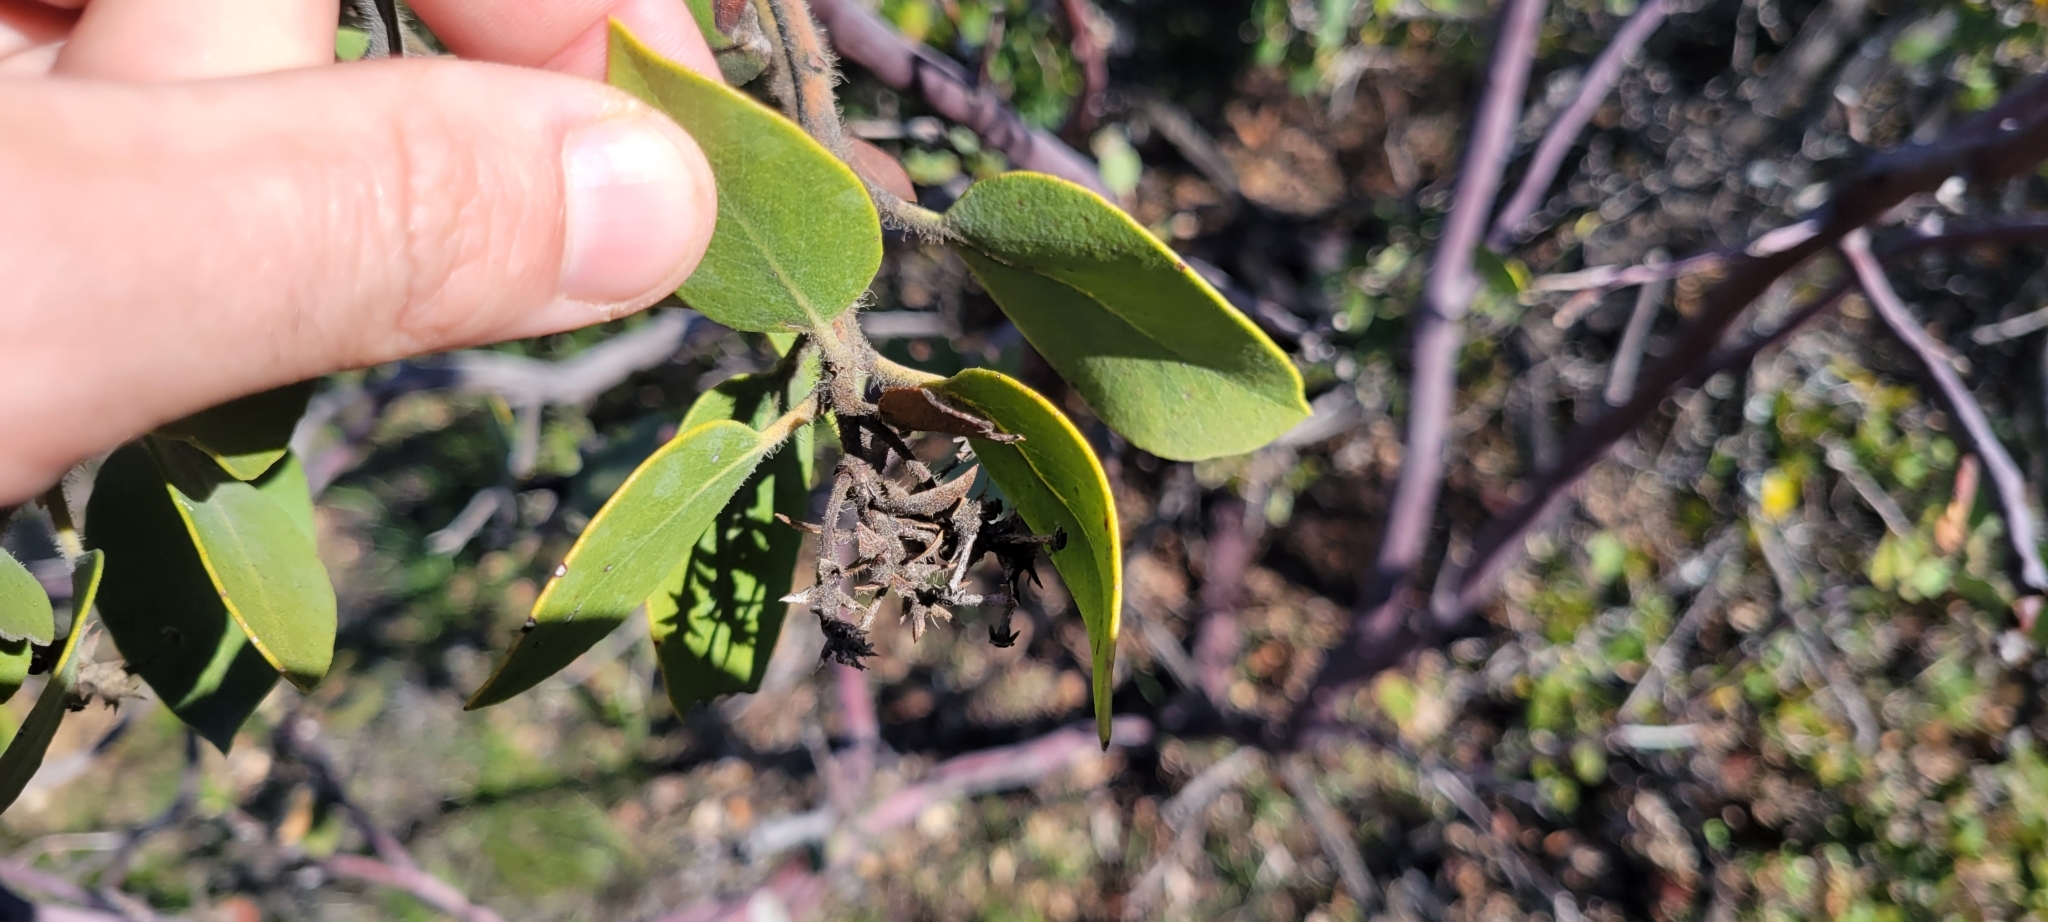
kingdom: Plantae
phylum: Tracheophyta
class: Magnoliopsida
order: Ericales
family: Ericaceae
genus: Arctostaphylos
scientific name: Arctostaphylos glandulosa
